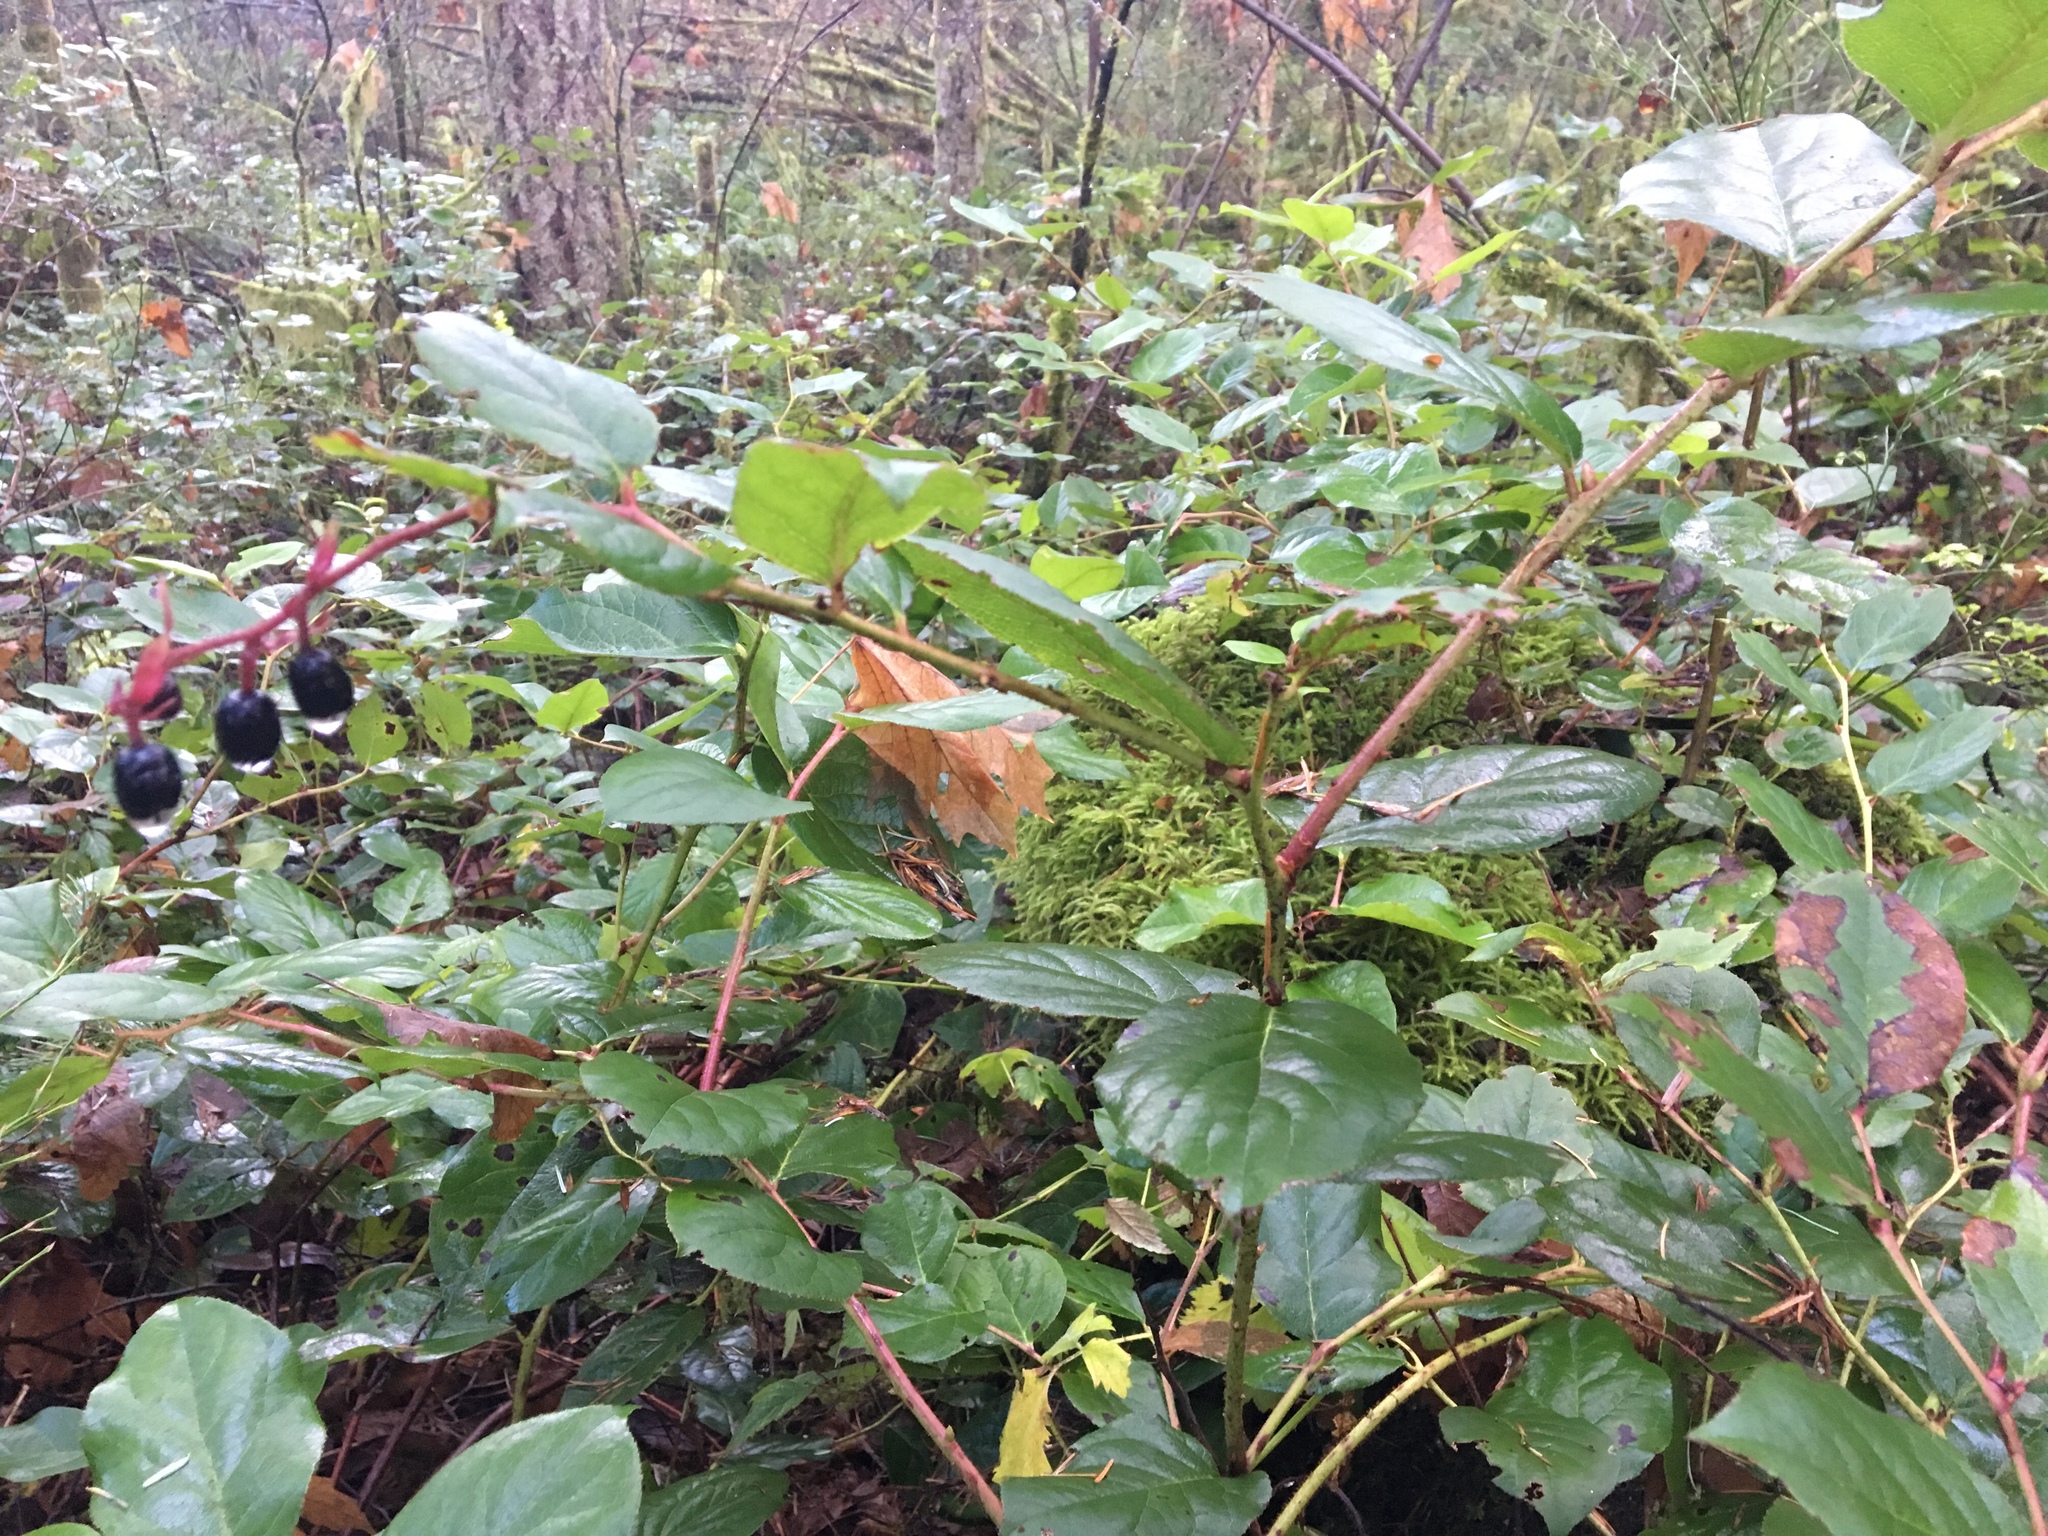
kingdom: Plantae
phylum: Tracheophyta
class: Magnoliopsida
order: Ericales
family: Ericaceae
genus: Gaultheria
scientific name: Gaultheria shallon
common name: Shallon
